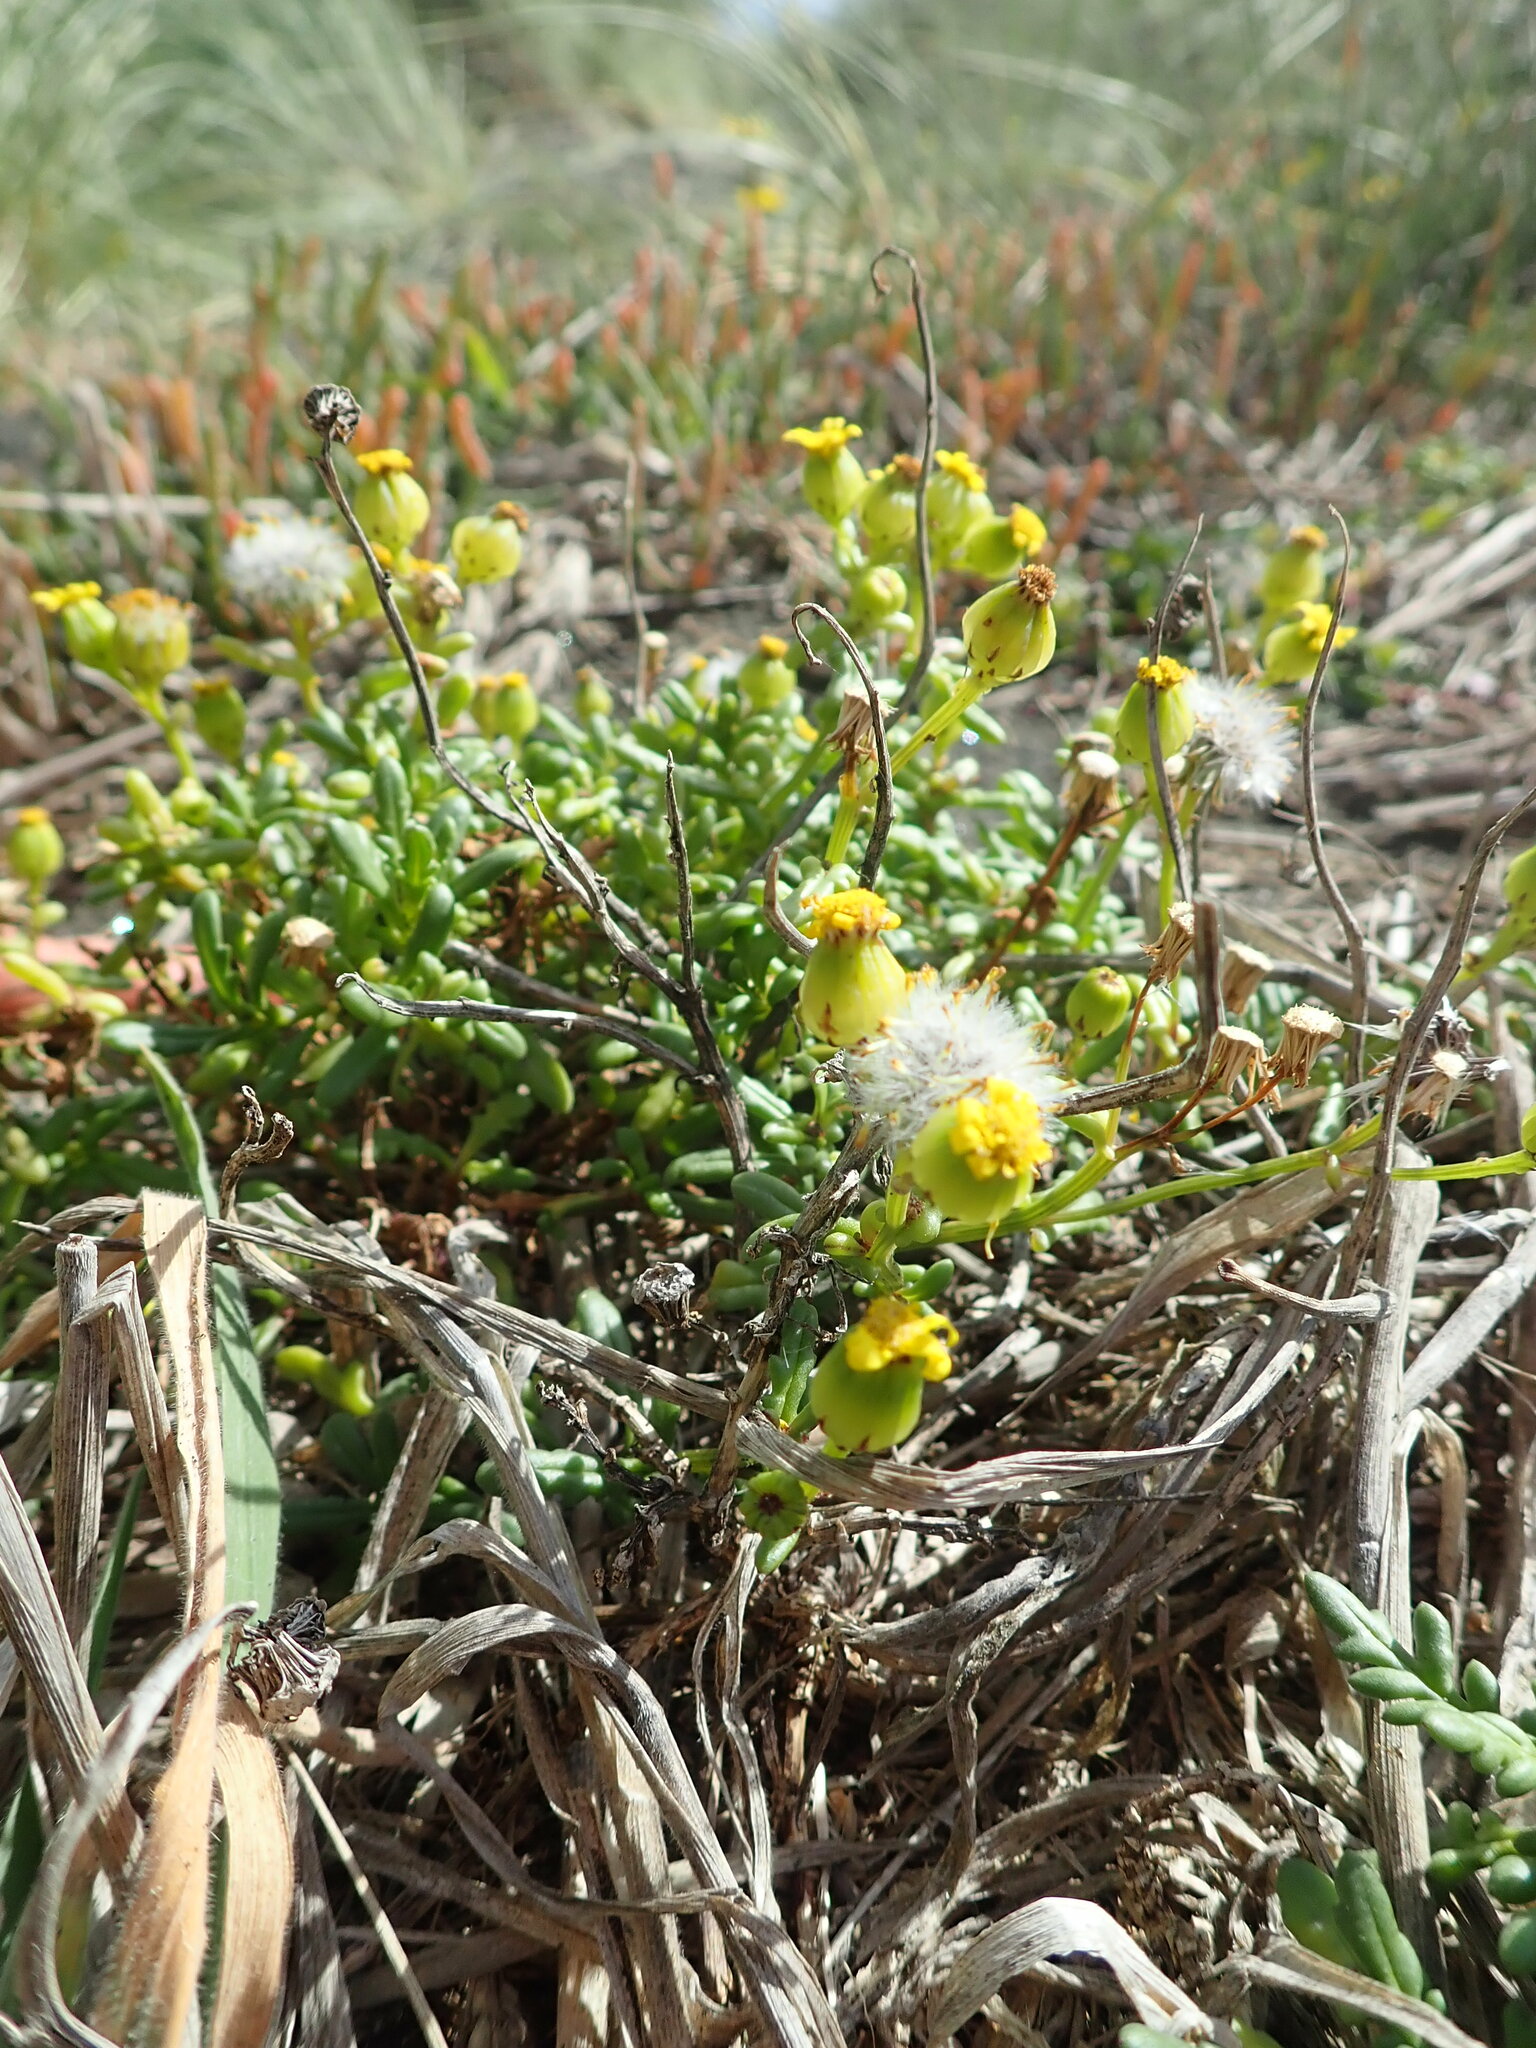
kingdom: Plantae
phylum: Tracheophyta
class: Magnoliopsida
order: Asterales
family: Asteraceae
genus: Senecio
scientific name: Senecio lautus
